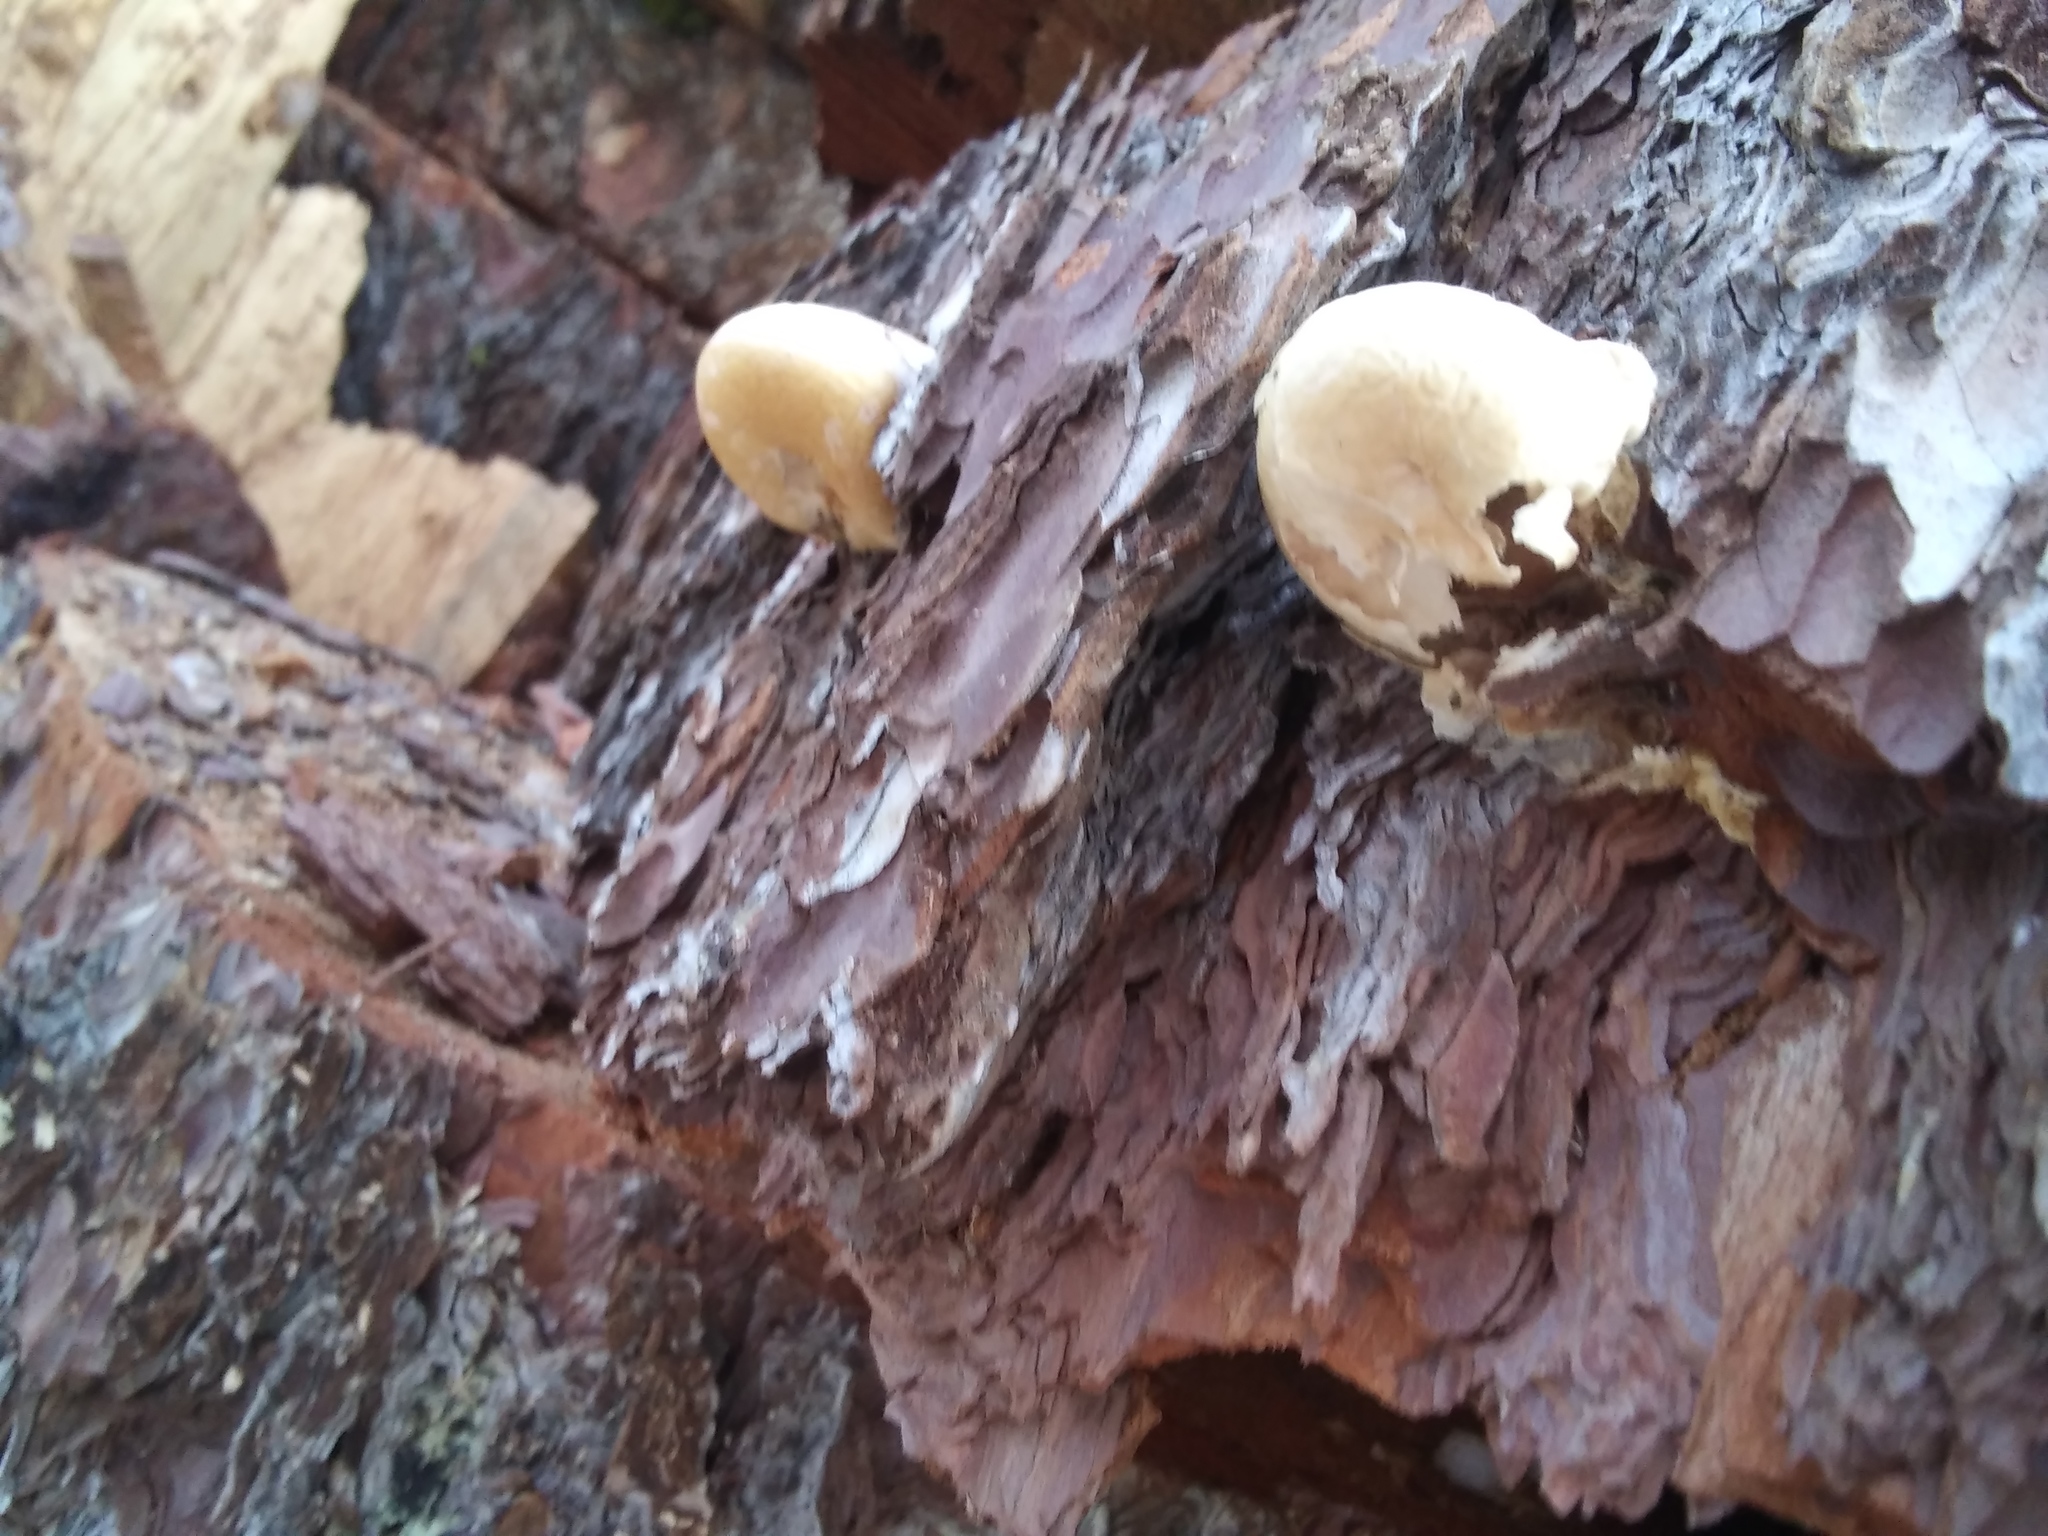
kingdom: Fungi
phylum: Basidiomycota
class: Agaricomycetes
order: Polyporales
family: Polyporaceae
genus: Cryptoporus
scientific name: Cryptoporus volvatus
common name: Veiled polypore
